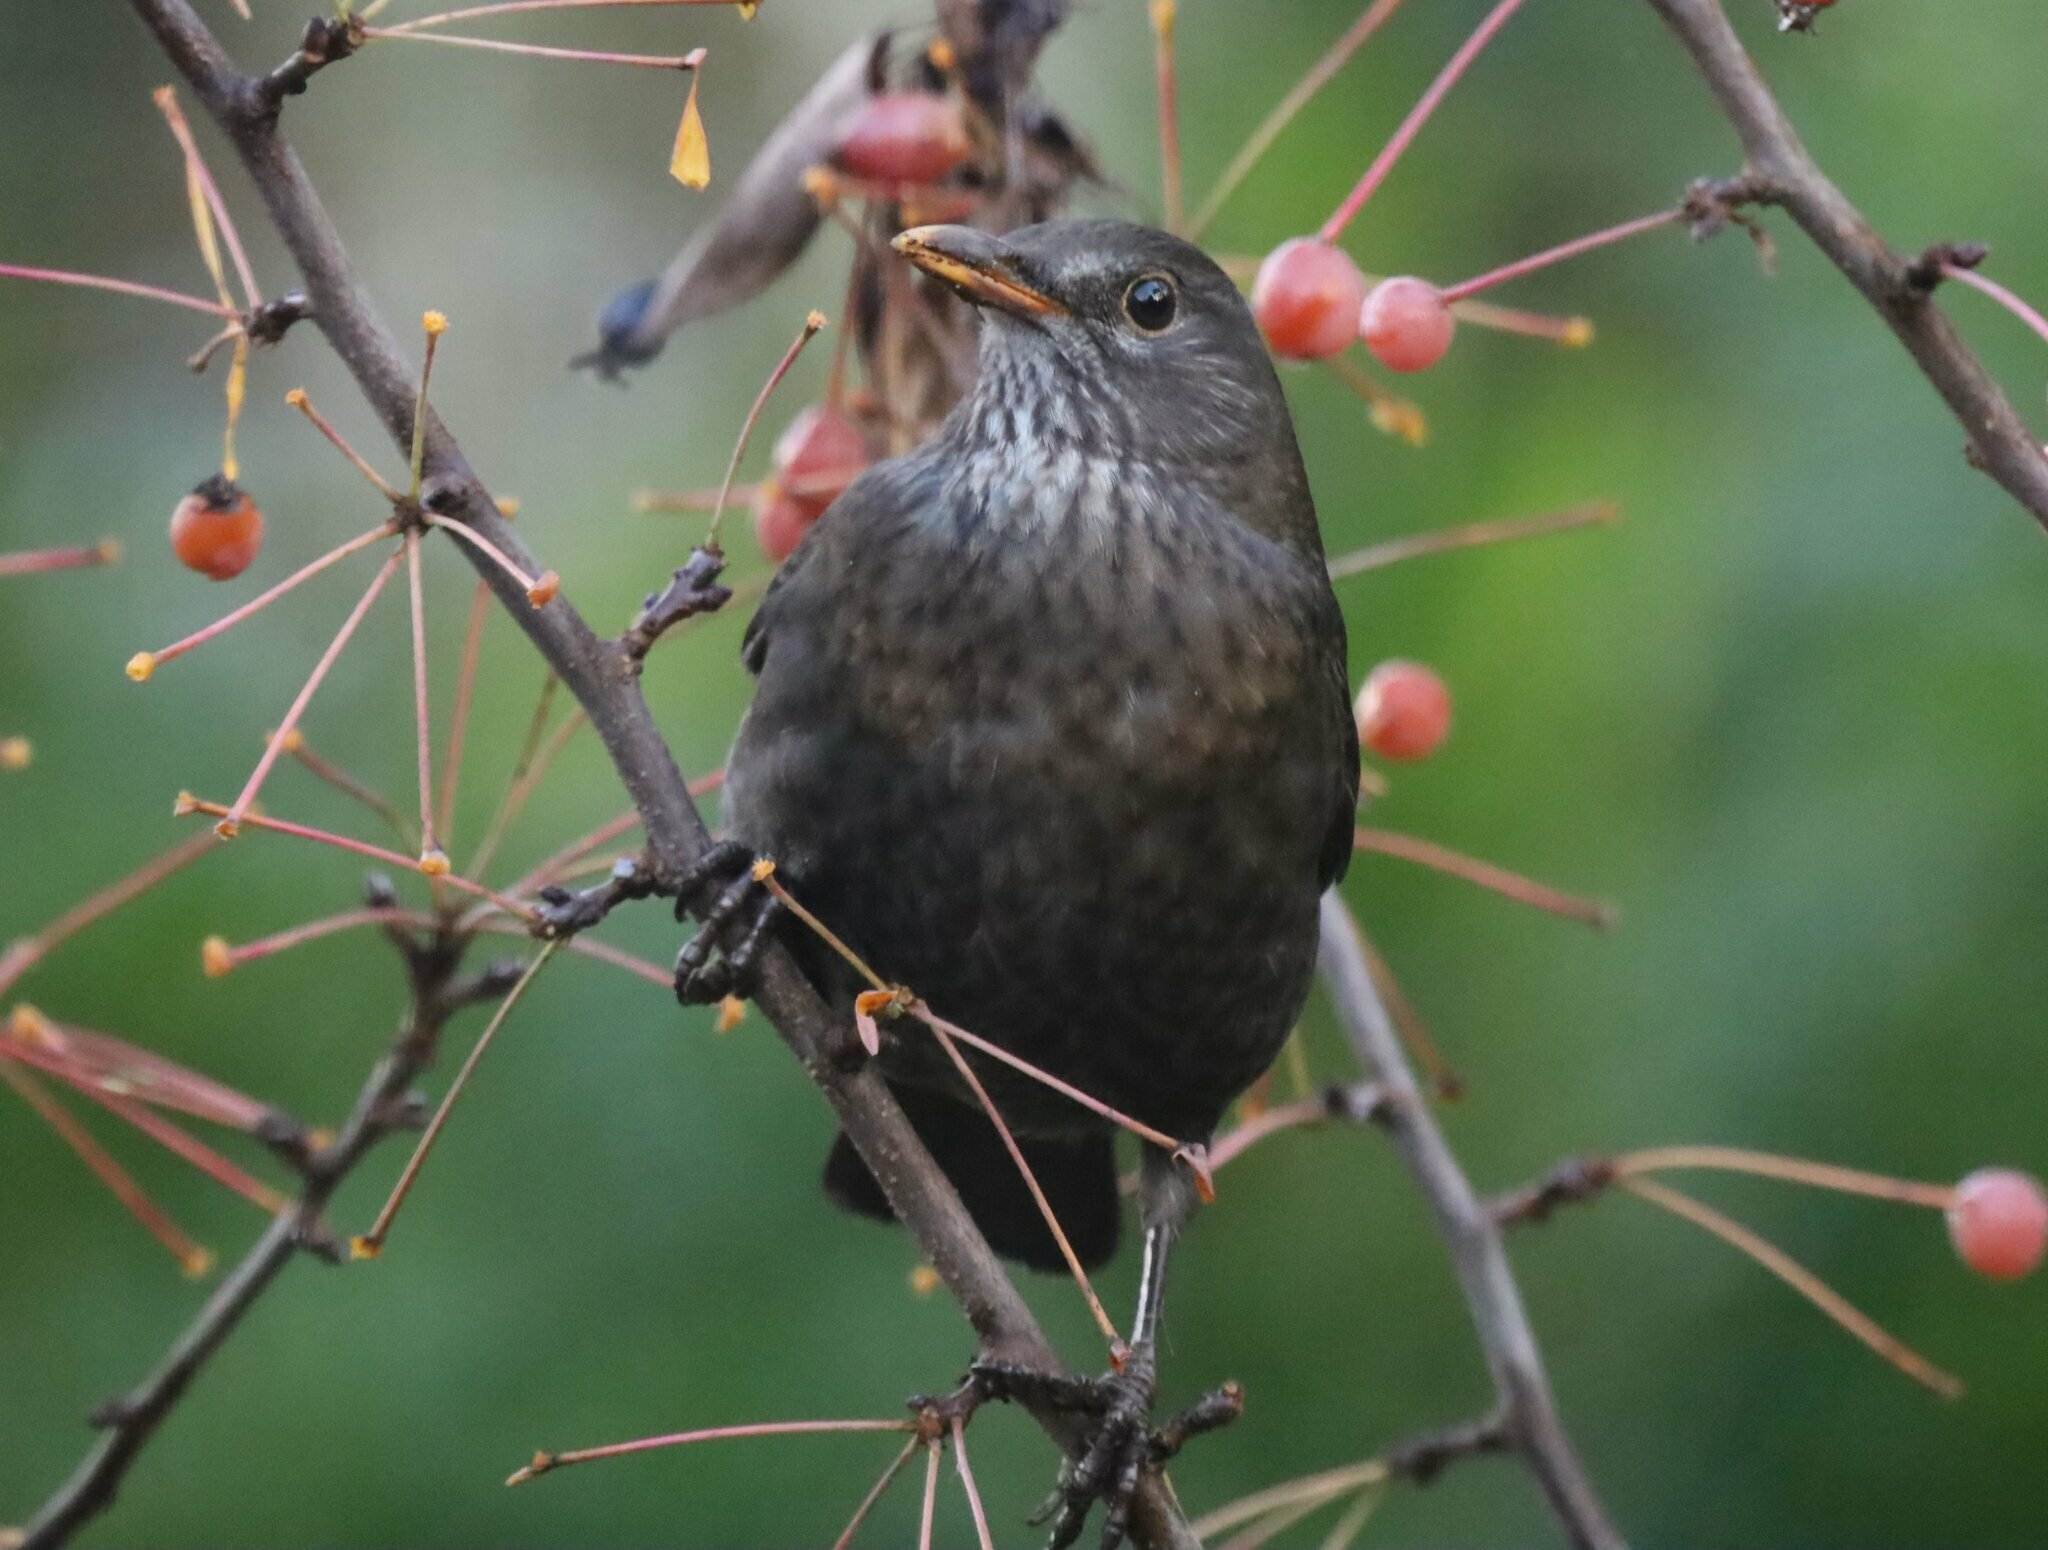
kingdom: Animalia
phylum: Chordata
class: Aves
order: Passeriformes
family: Turdidae
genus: Turdus
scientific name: Turdus merula
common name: Common blackbird
